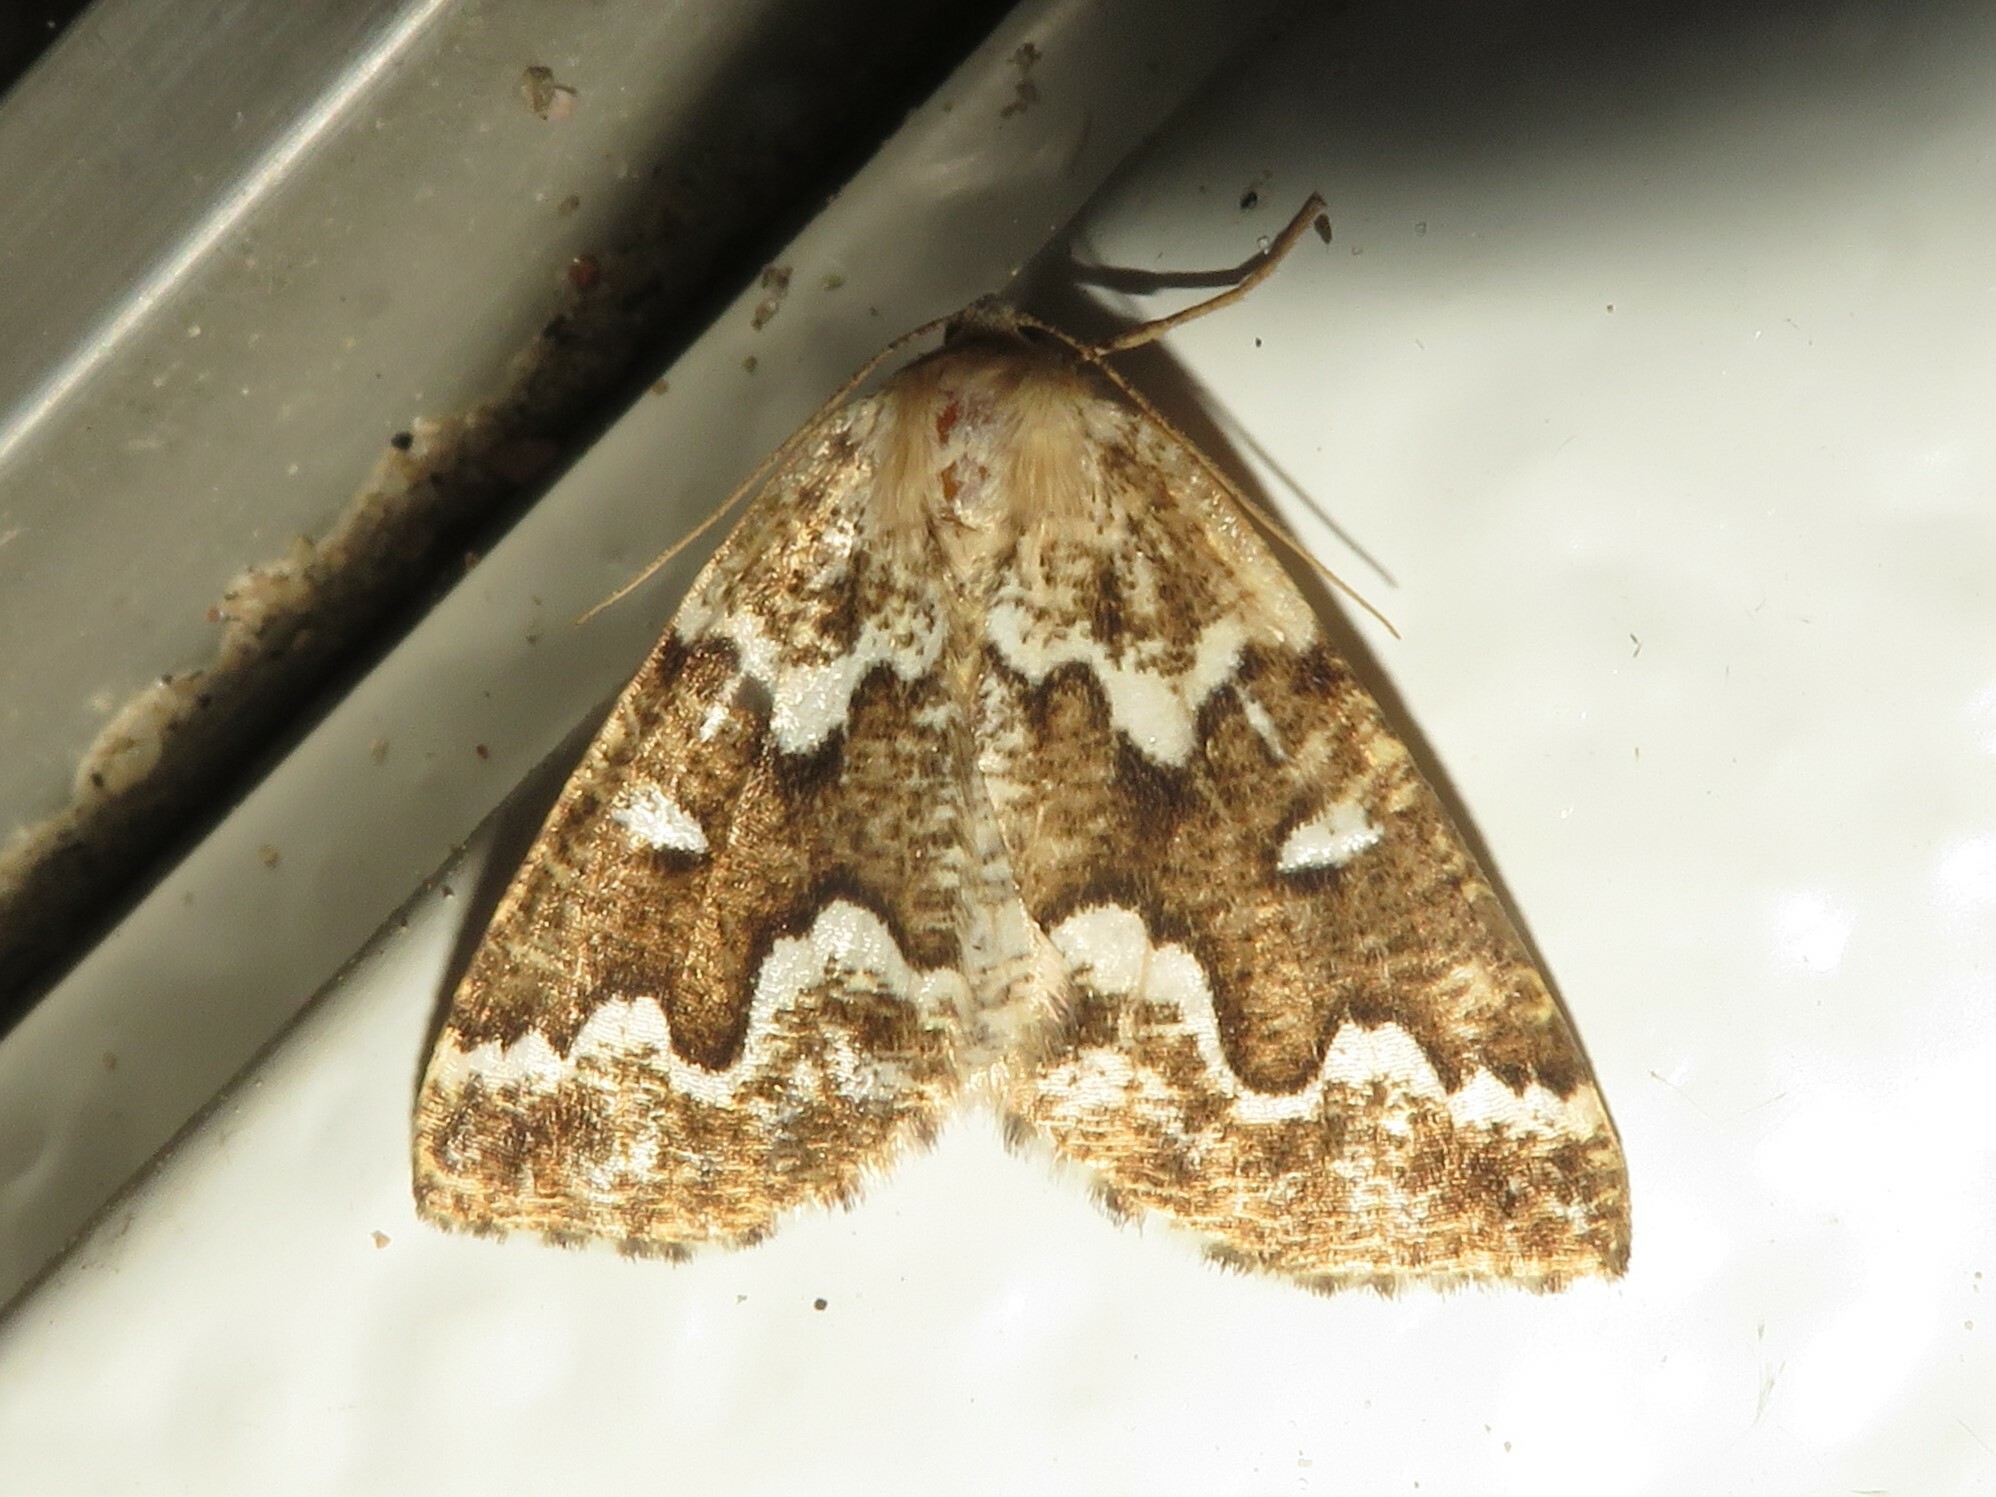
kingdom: Animalia
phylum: Arthropoda
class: Insecta
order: Lepidoptera
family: Geometridae
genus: Caripeta
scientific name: Caripeta divisata
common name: Gray spruce looper
